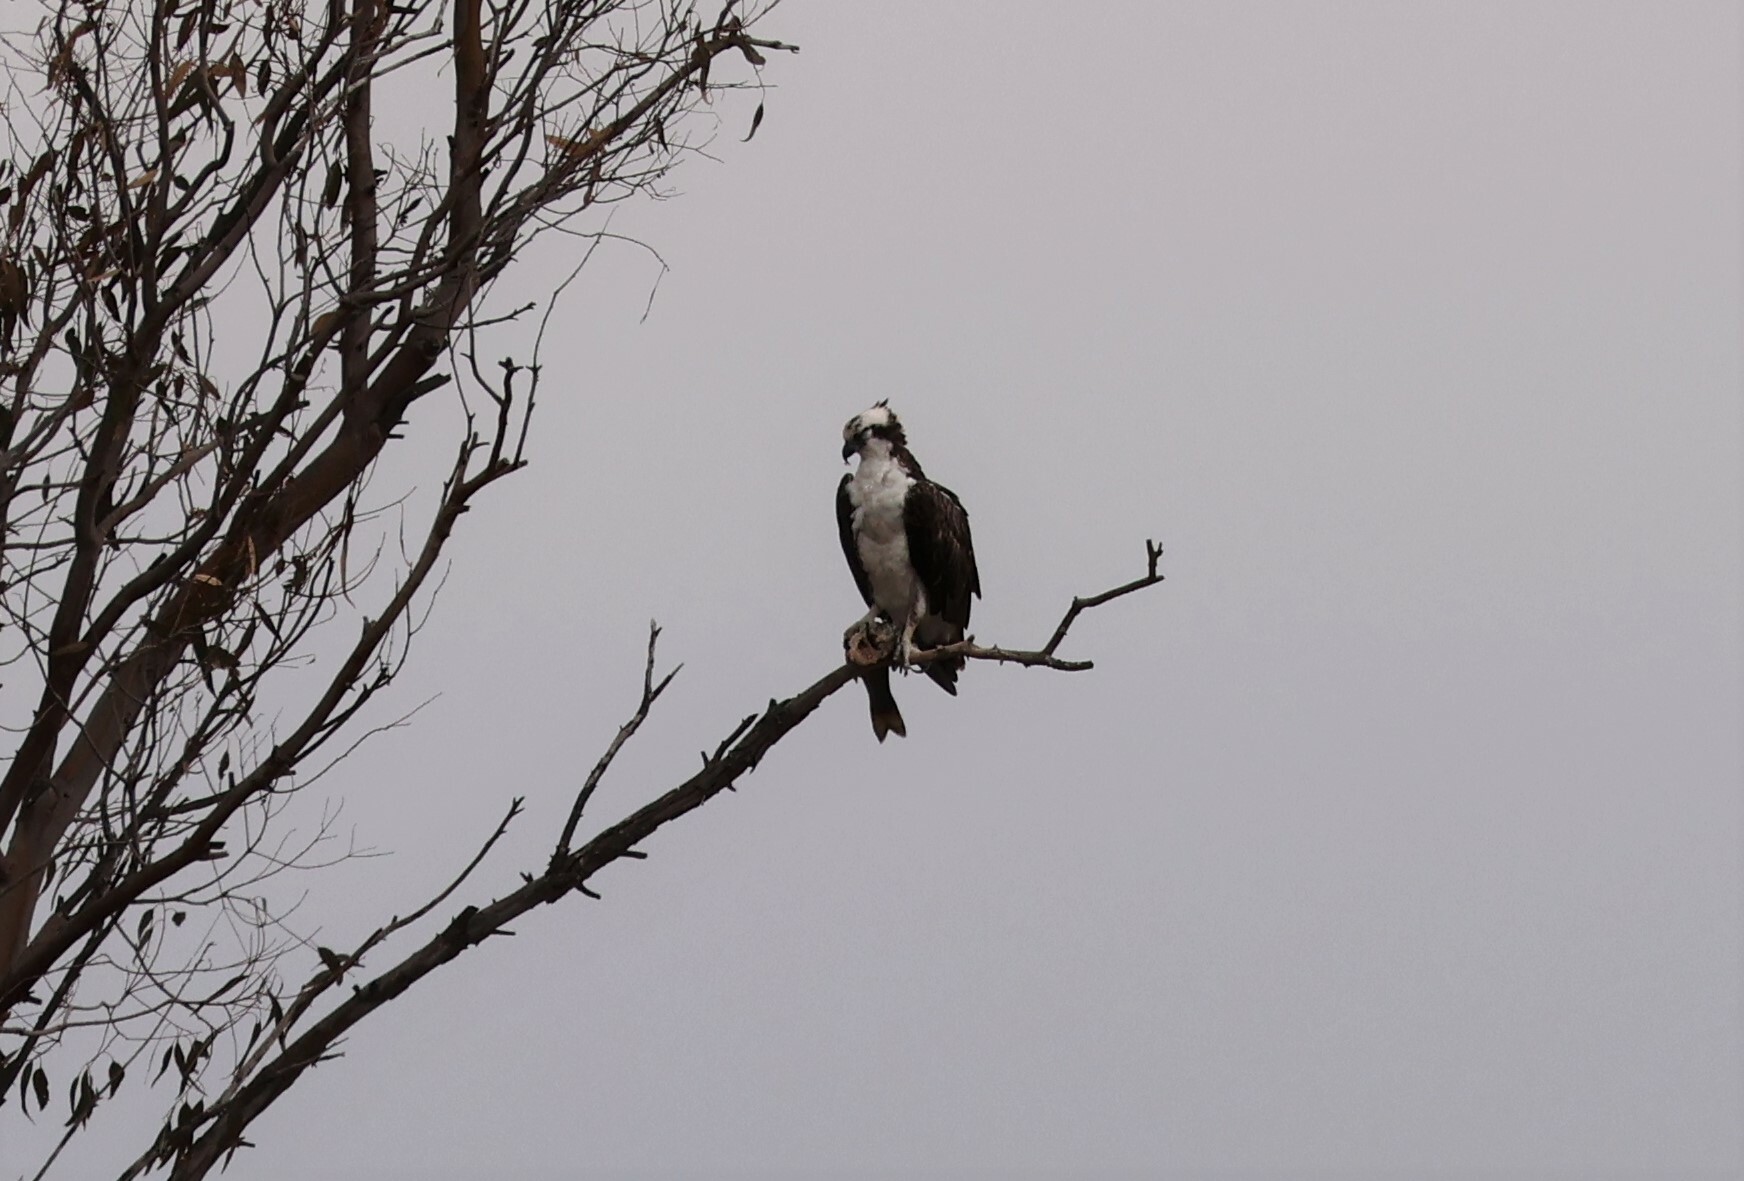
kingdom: Animalia
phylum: Chordata
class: Aves
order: Accipitriformes
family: Pandionidae
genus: Pandion
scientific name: Pandion haliaetus
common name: Osprey
